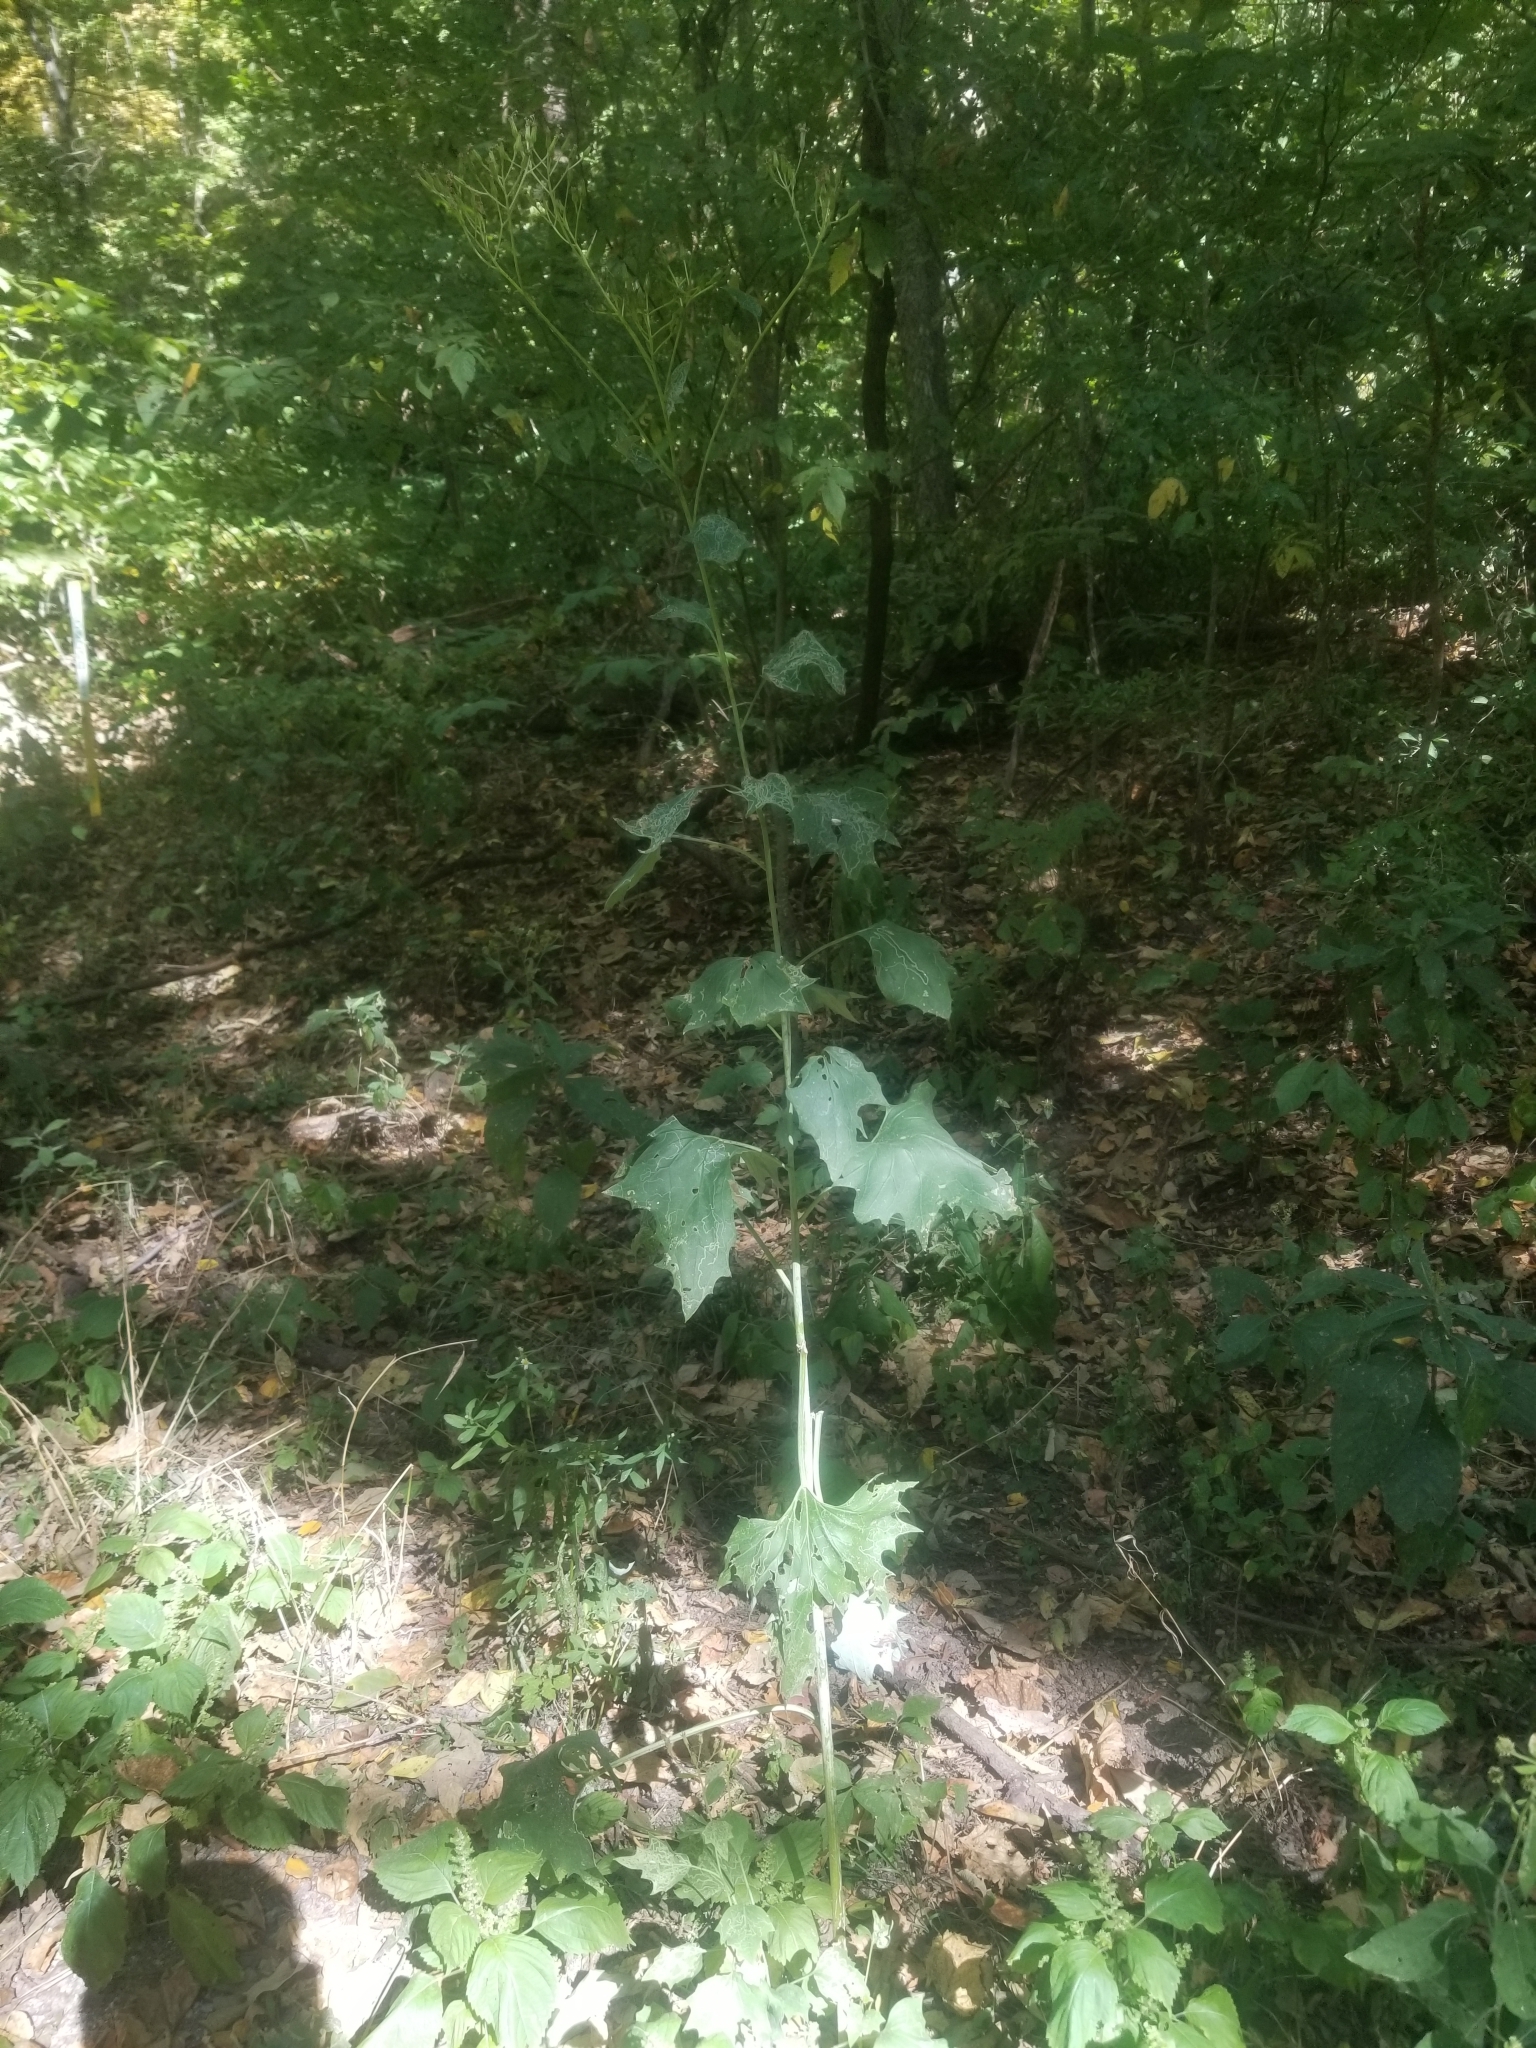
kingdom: Plantae
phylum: Tracheophyta
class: Magnoliopsida
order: Asterales
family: Asteraceae
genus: Arnoglossum
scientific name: Arnoglossum atriplicifolium
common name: Pale indian-plantain
